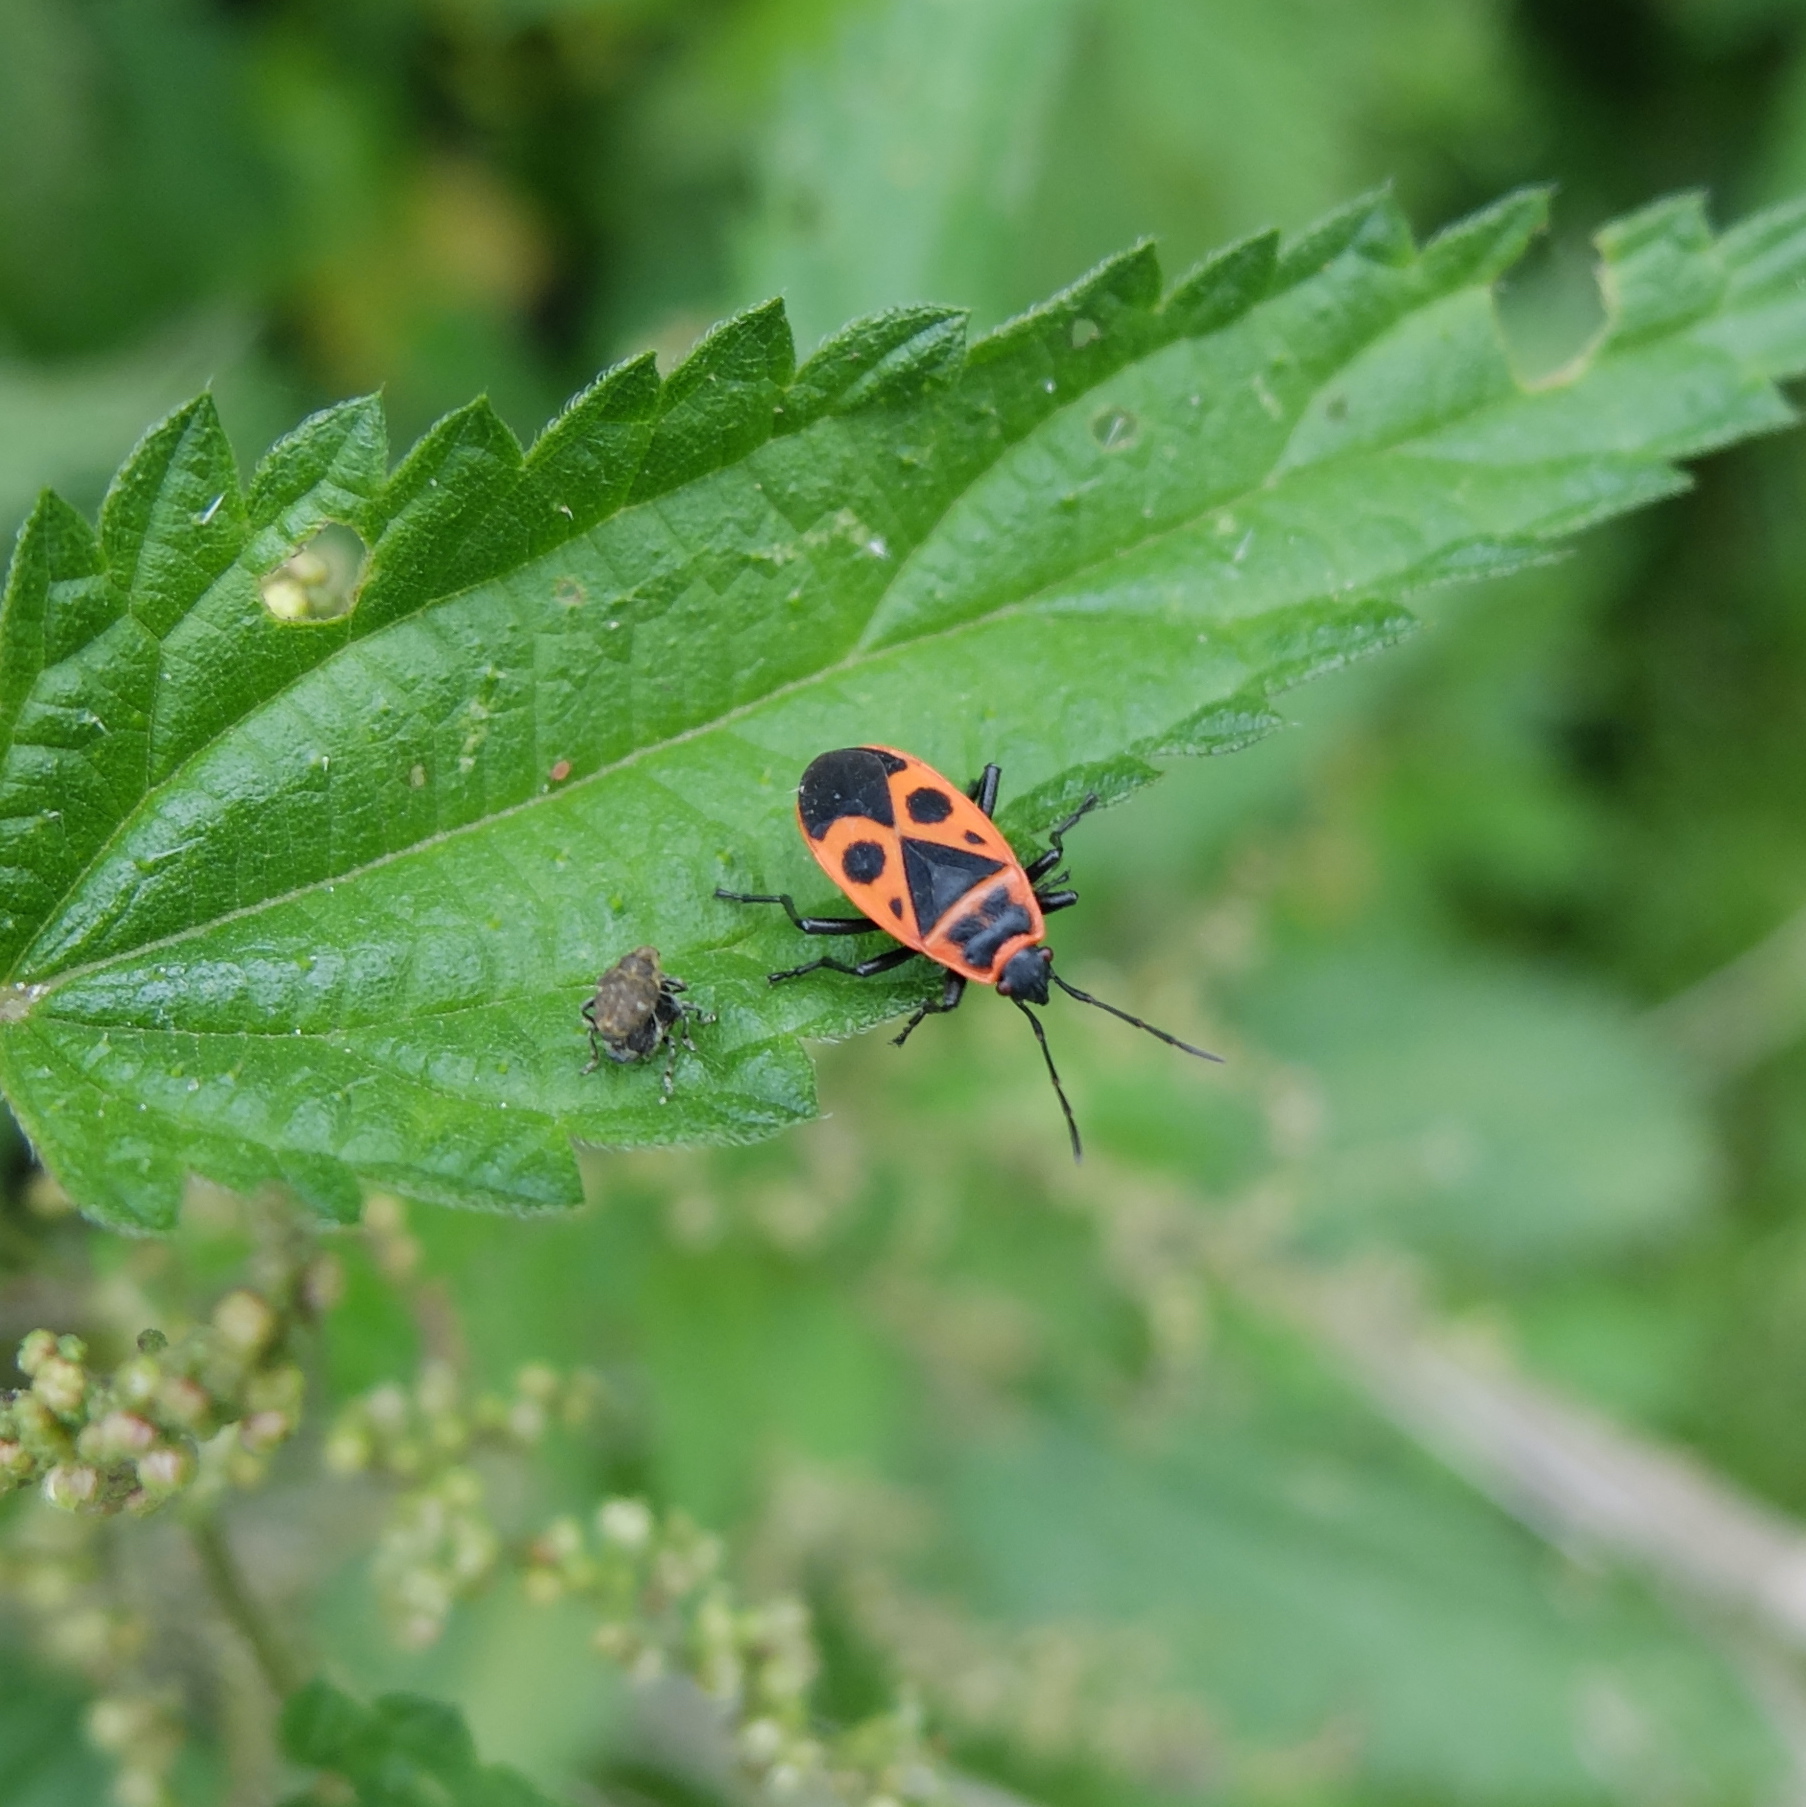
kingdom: Animalia
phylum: Arthropoda
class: Insecta
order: Hemiptera
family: Pyrrhocoridae
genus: Pyrrhocoris
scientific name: Pyrrhocoris apterus
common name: Firebug
